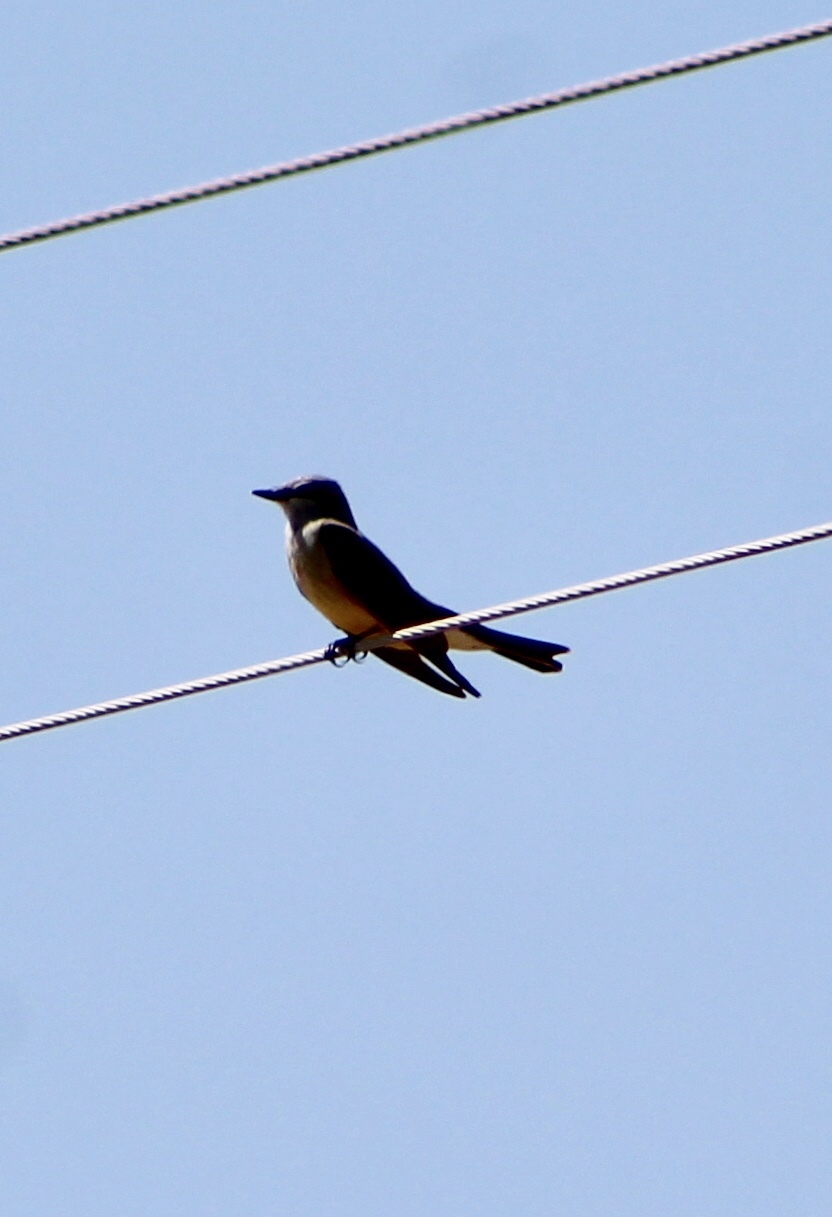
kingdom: Animalia
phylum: Chordata
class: Aves
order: Passeriformes
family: Tyrannidae
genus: Tyrannus
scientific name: Tyrannus verticalis
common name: Western kingbird
